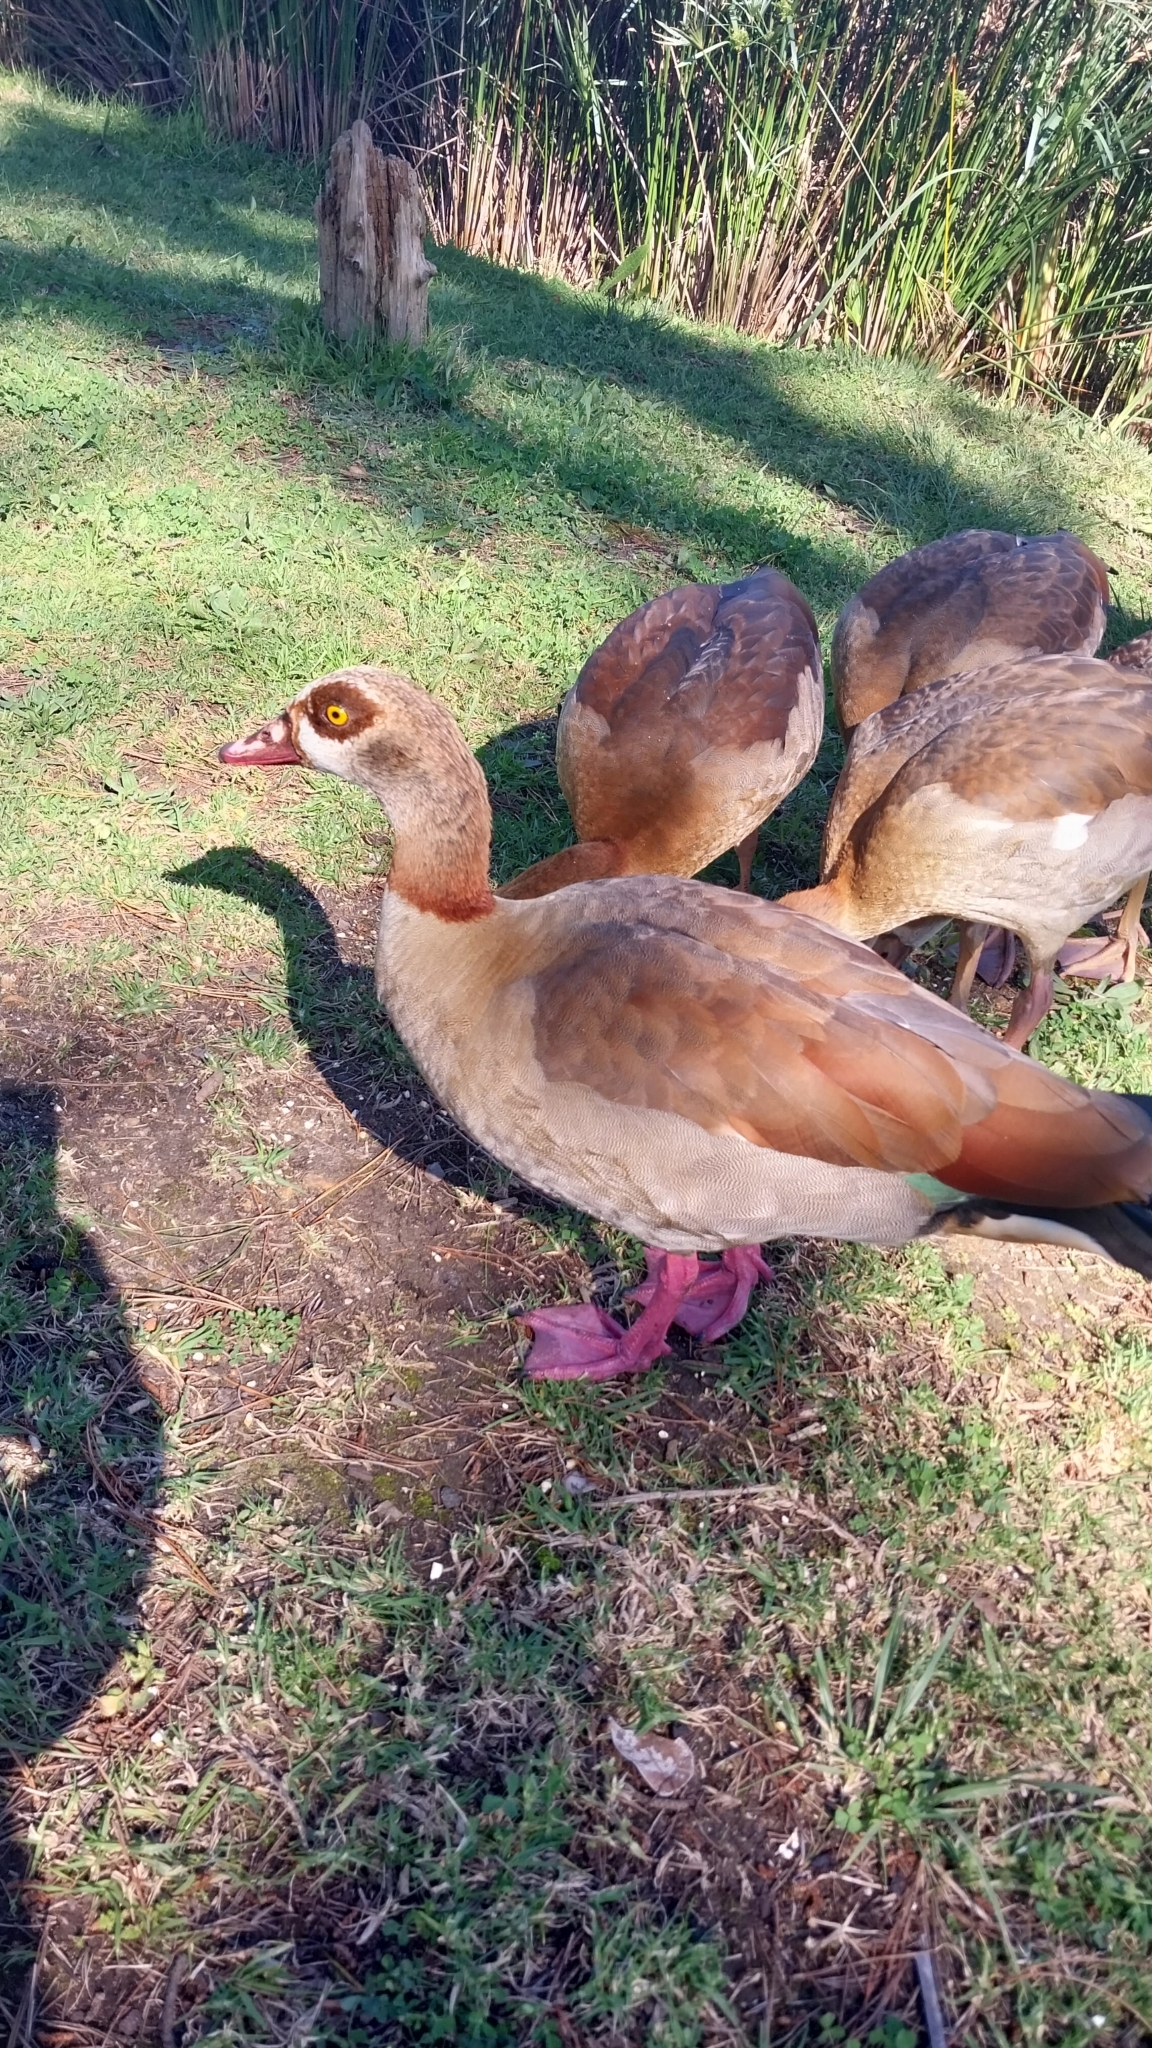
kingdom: Animalia
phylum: Chordata
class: Aves
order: Anseriformes
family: Anatidae
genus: Alopochen
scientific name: Alopochen aegyptiaca
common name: Egyptian goose
